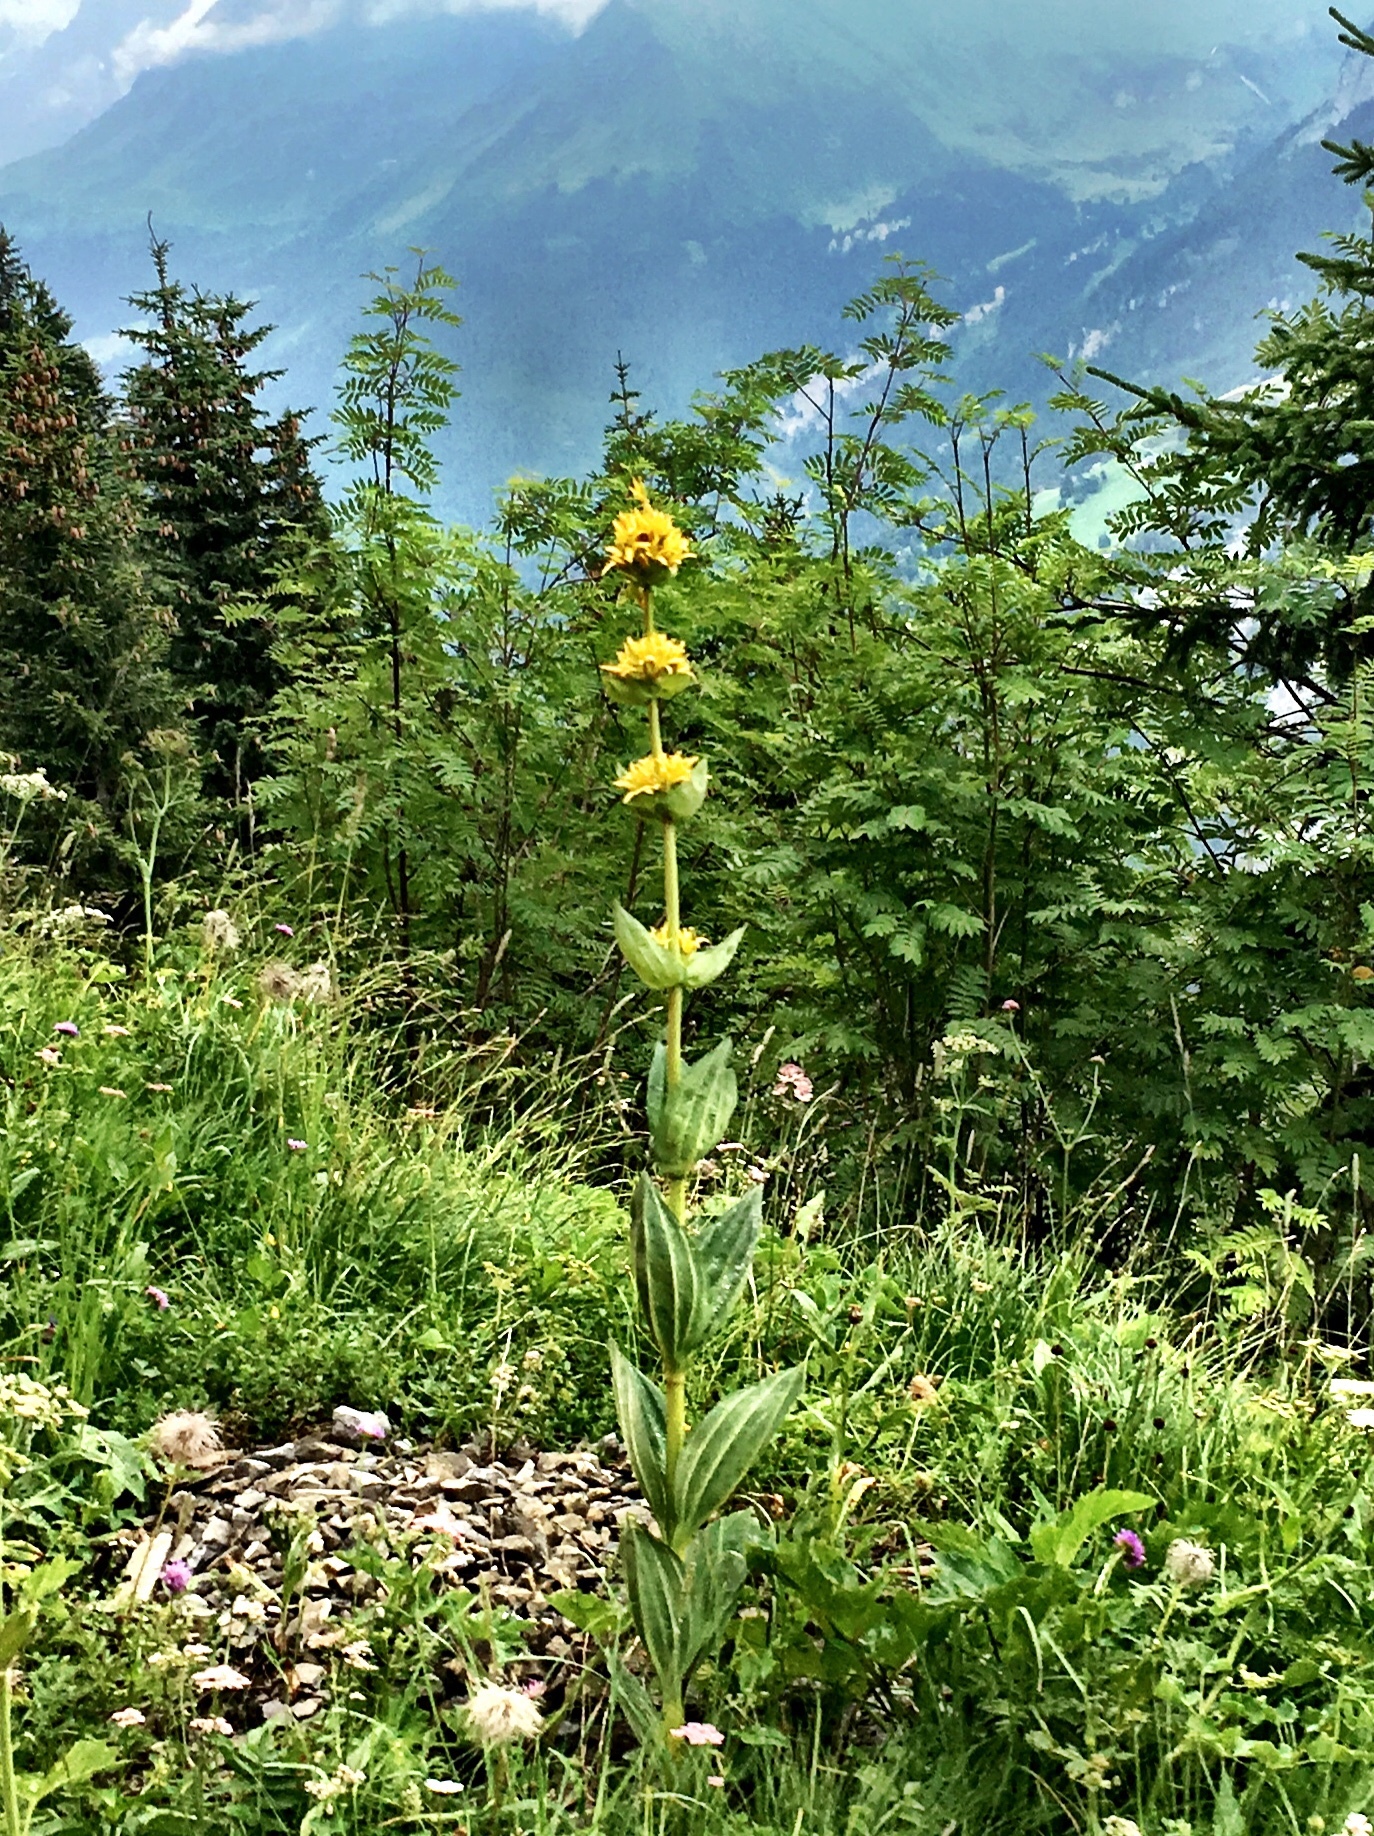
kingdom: Plantae
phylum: Tracheophyta
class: Magnoliopsida
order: Gentianales
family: Gentianaceae
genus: Gentiana
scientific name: Gentiana lutea
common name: Great yellow gentian
